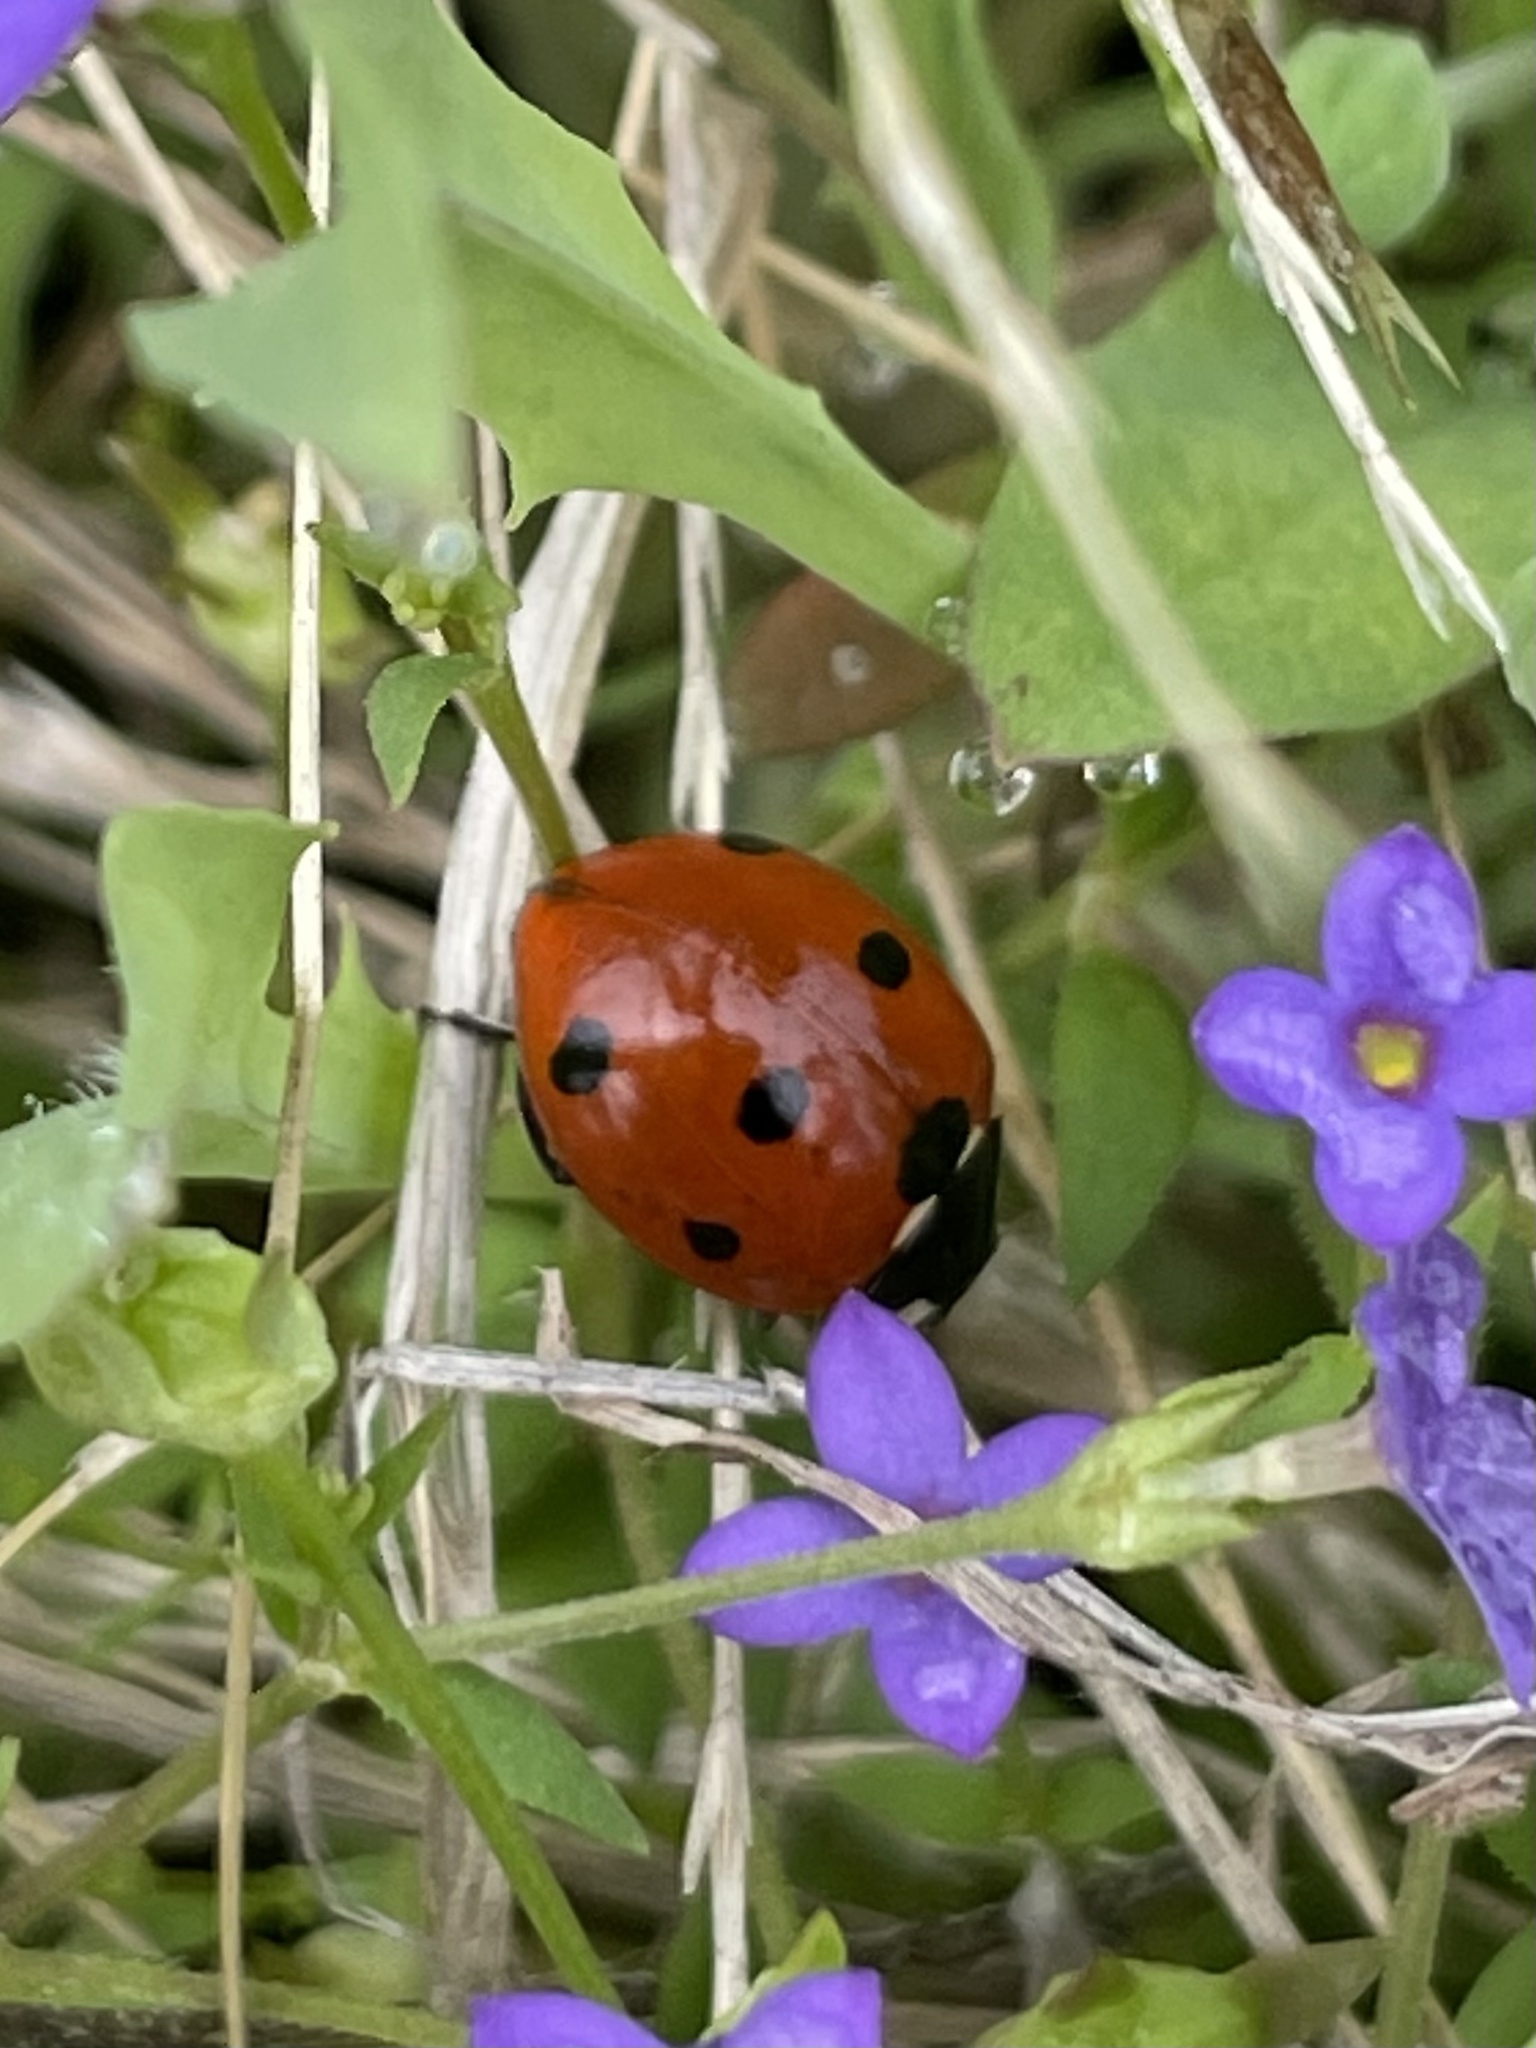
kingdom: Animalia
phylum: Arthropoda
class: Insecta
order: Coleoptera
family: Coccinellidae
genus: Coccinella
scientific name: Coccinella septempunctata
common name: Sevenspotted lady beetle
